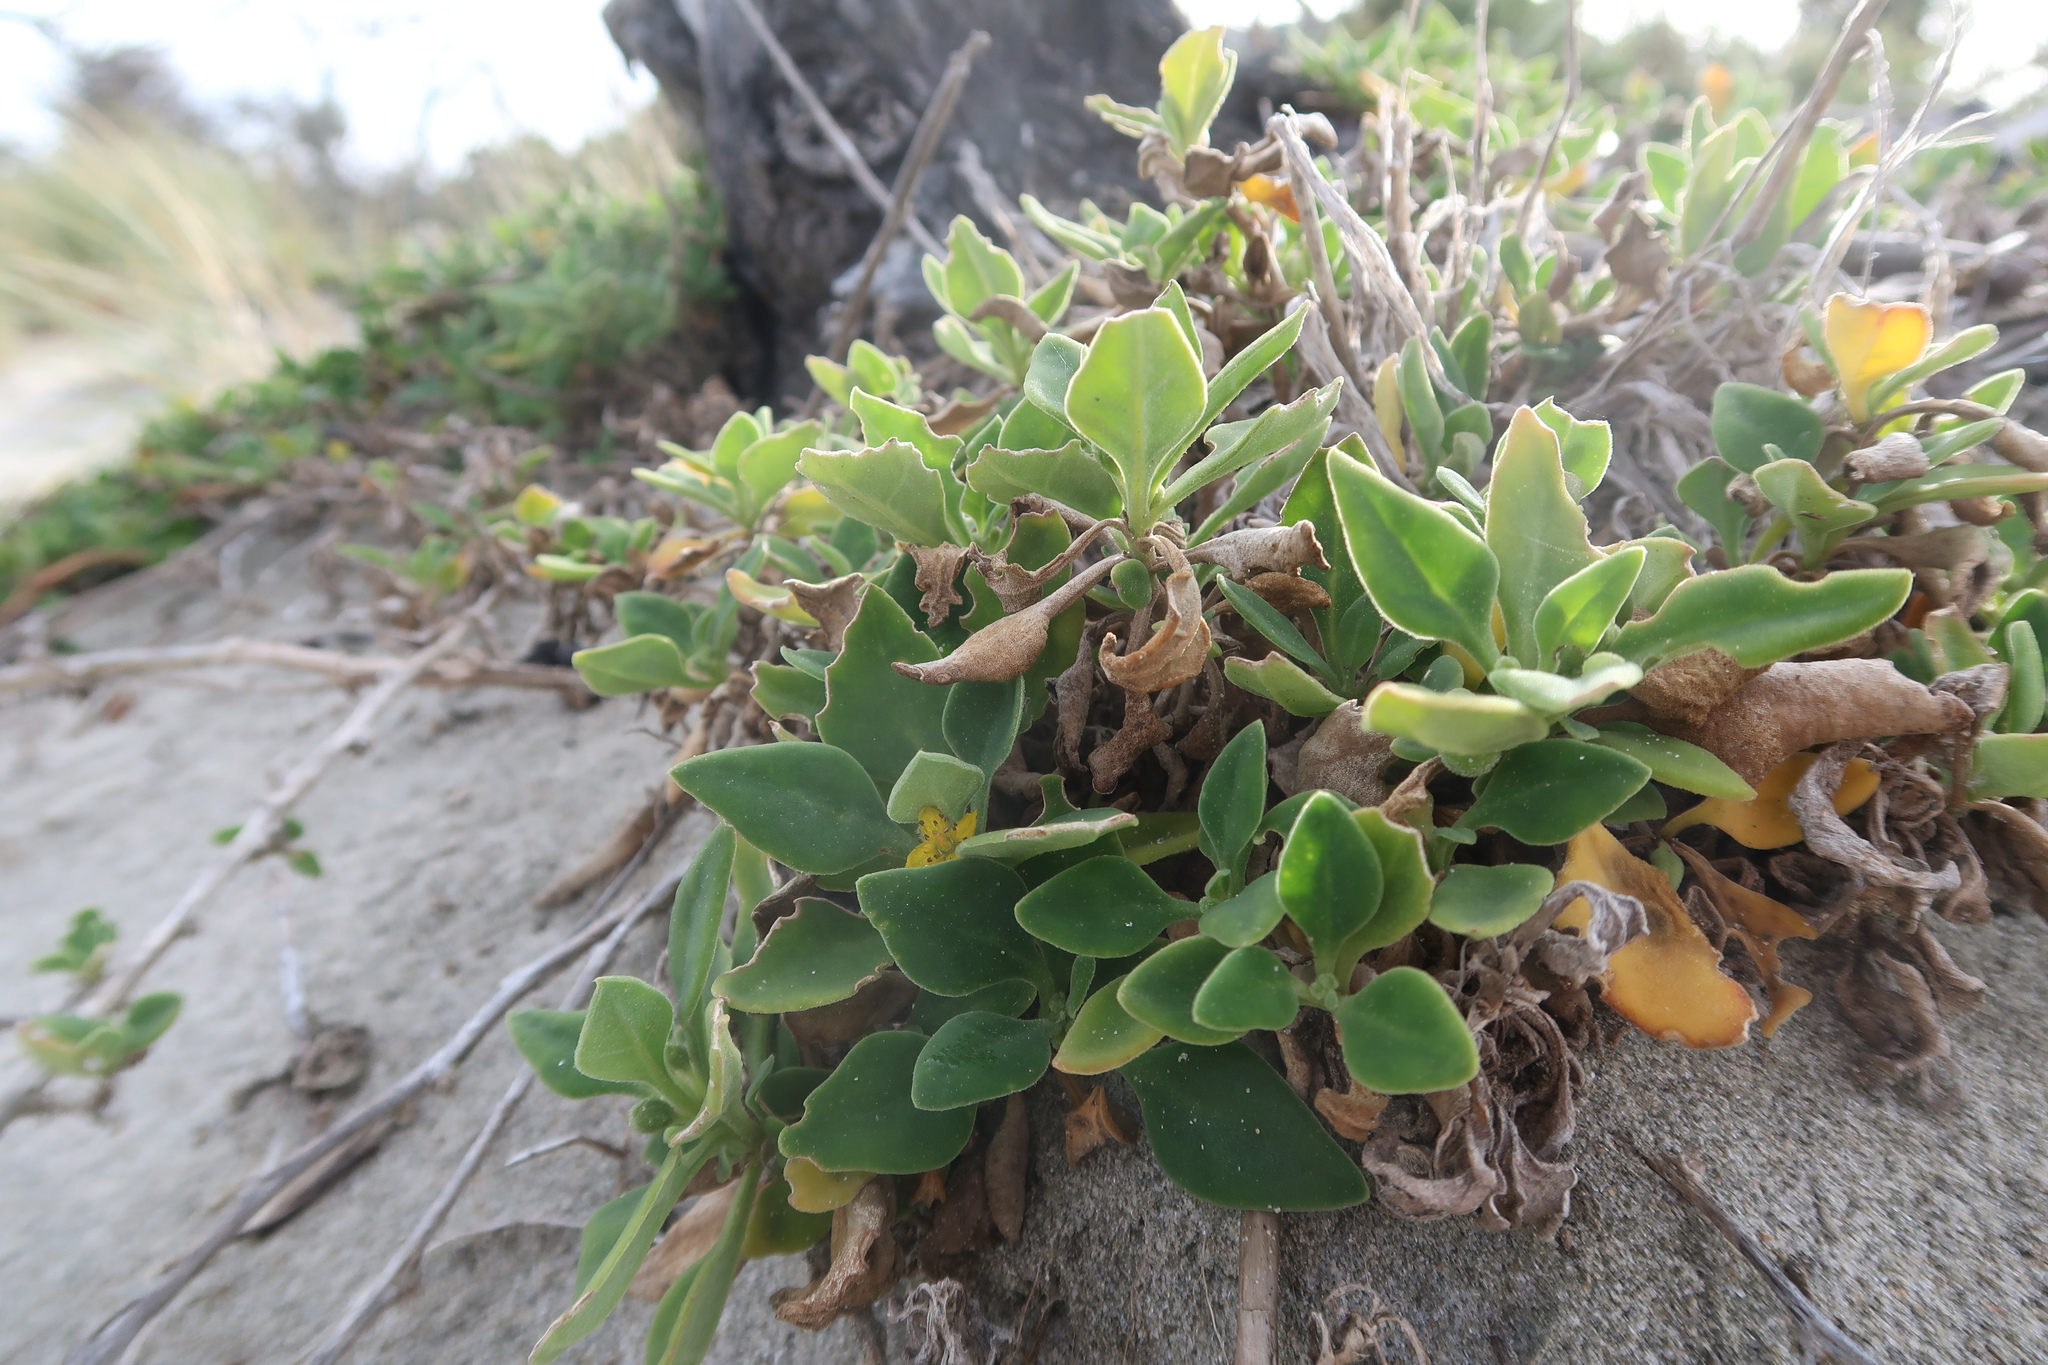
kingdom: Plantae
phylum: Tracheophyta
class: Magnoliopsida
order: Caryophyllales
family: Aizoaceae
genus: Tetragonia
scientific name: Tetragonia implexicoma
